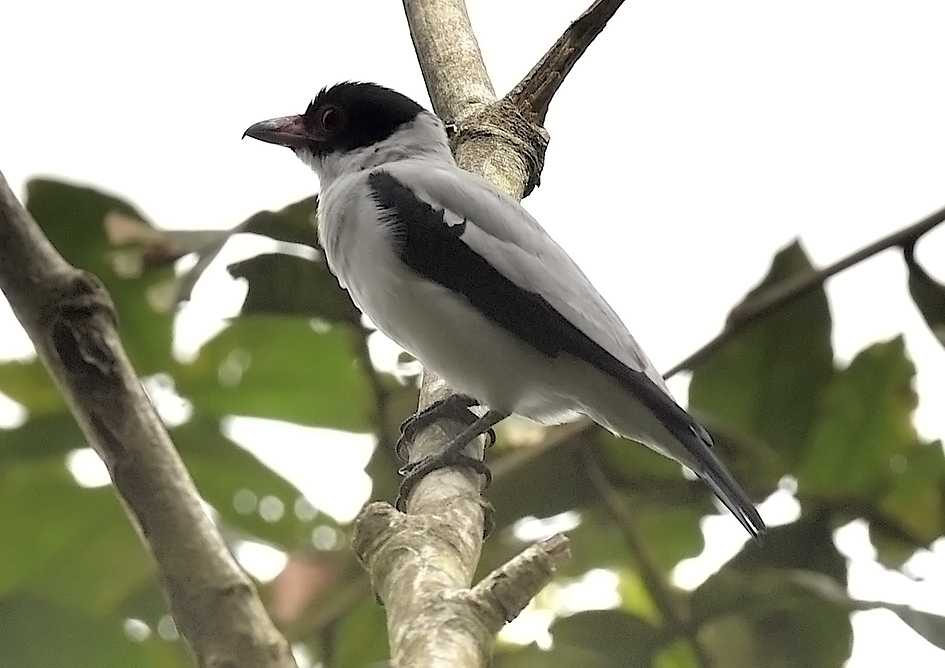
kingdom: Animalia
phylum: Chordata
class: Aves
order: Passeriformes
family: Cotingidae
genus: Tityra
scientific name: Tityra cayana
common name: Black-tailed tityra
